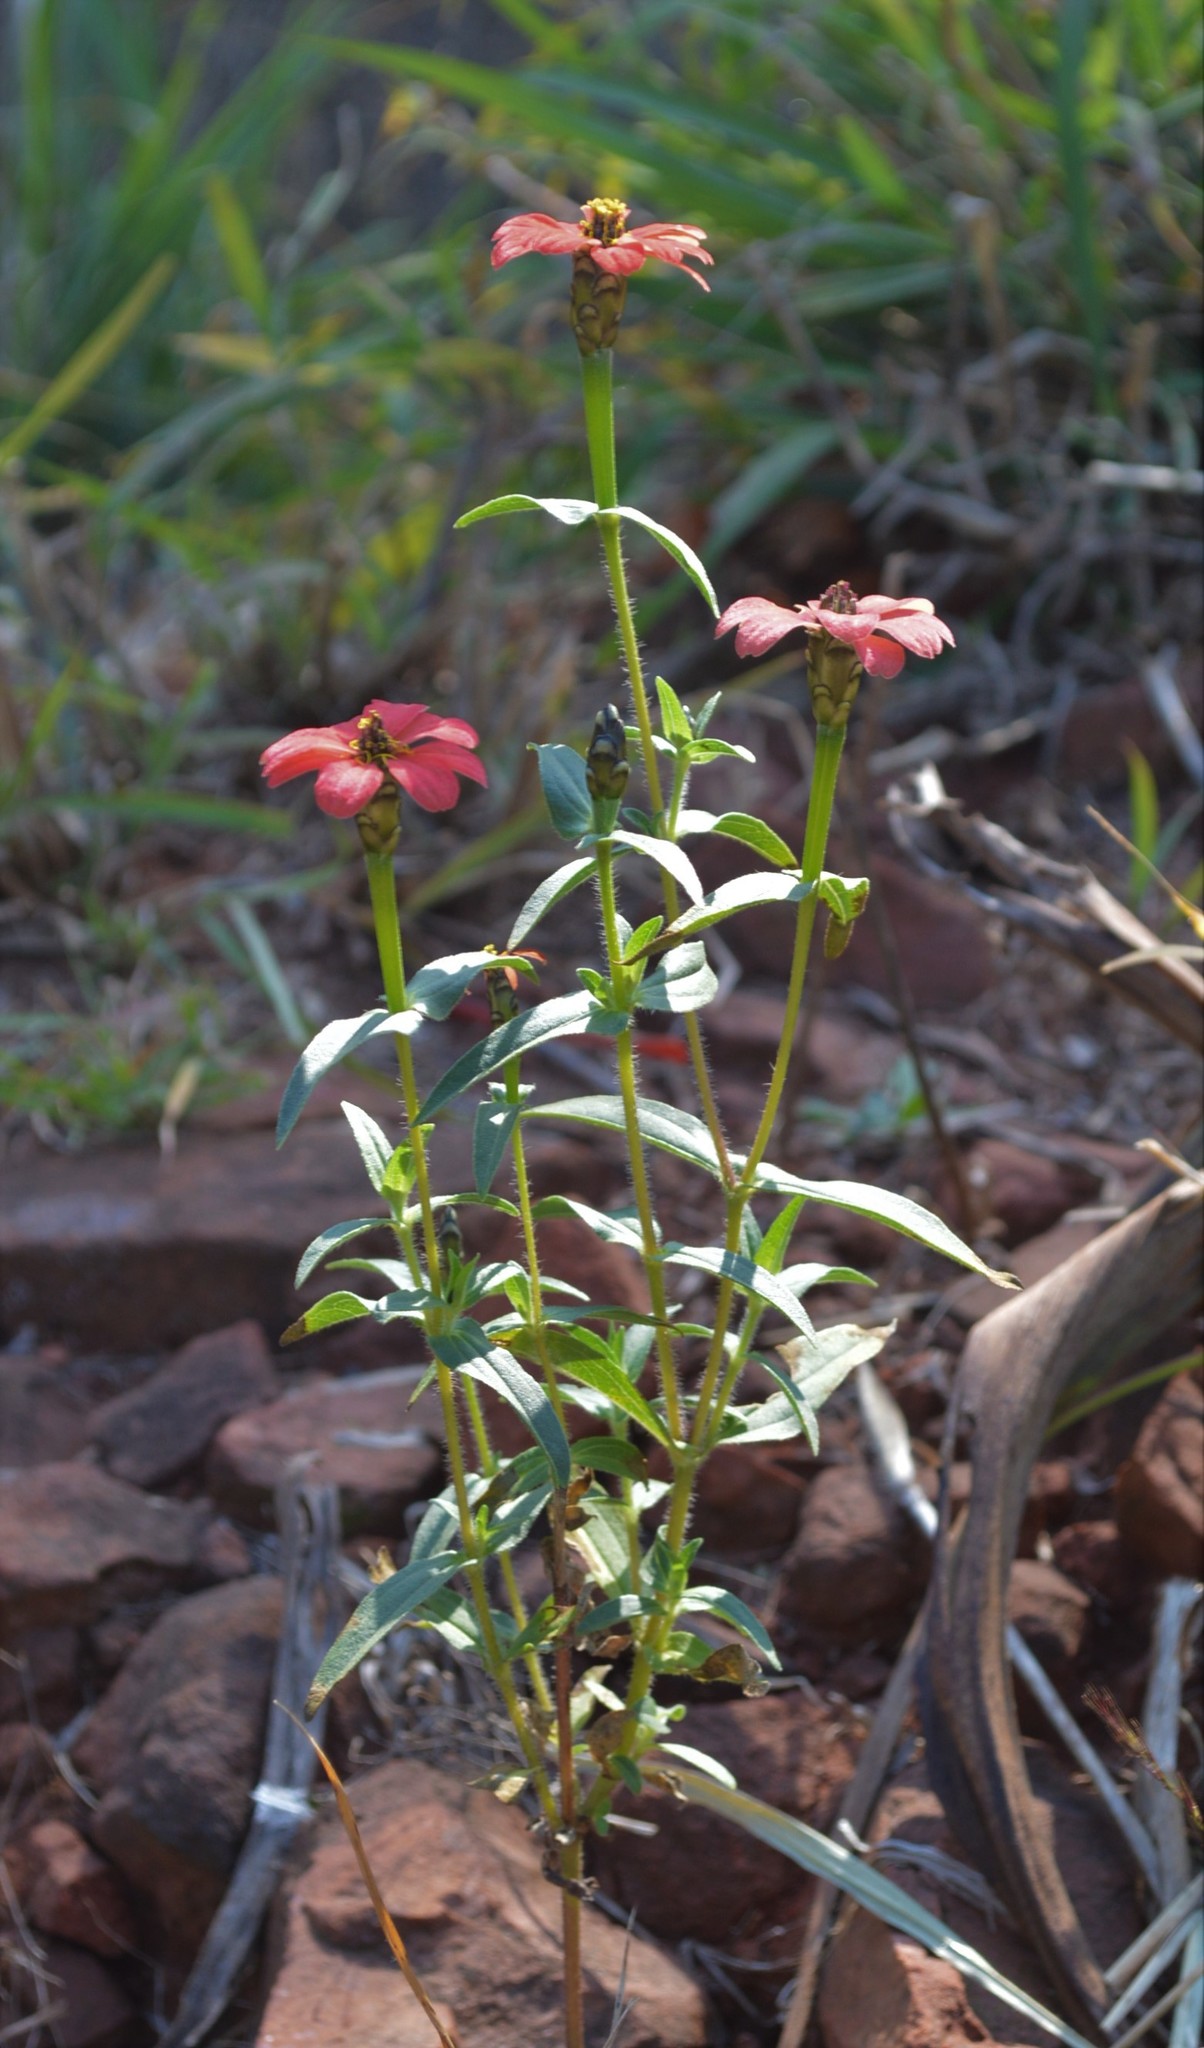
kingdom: Plantae
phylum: Tracheophyta
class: Magnoliopsida
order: Asterales
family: Asteraceae
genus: Zinnia
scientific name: Zinnia peruviana
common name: Peruvian zinnia
